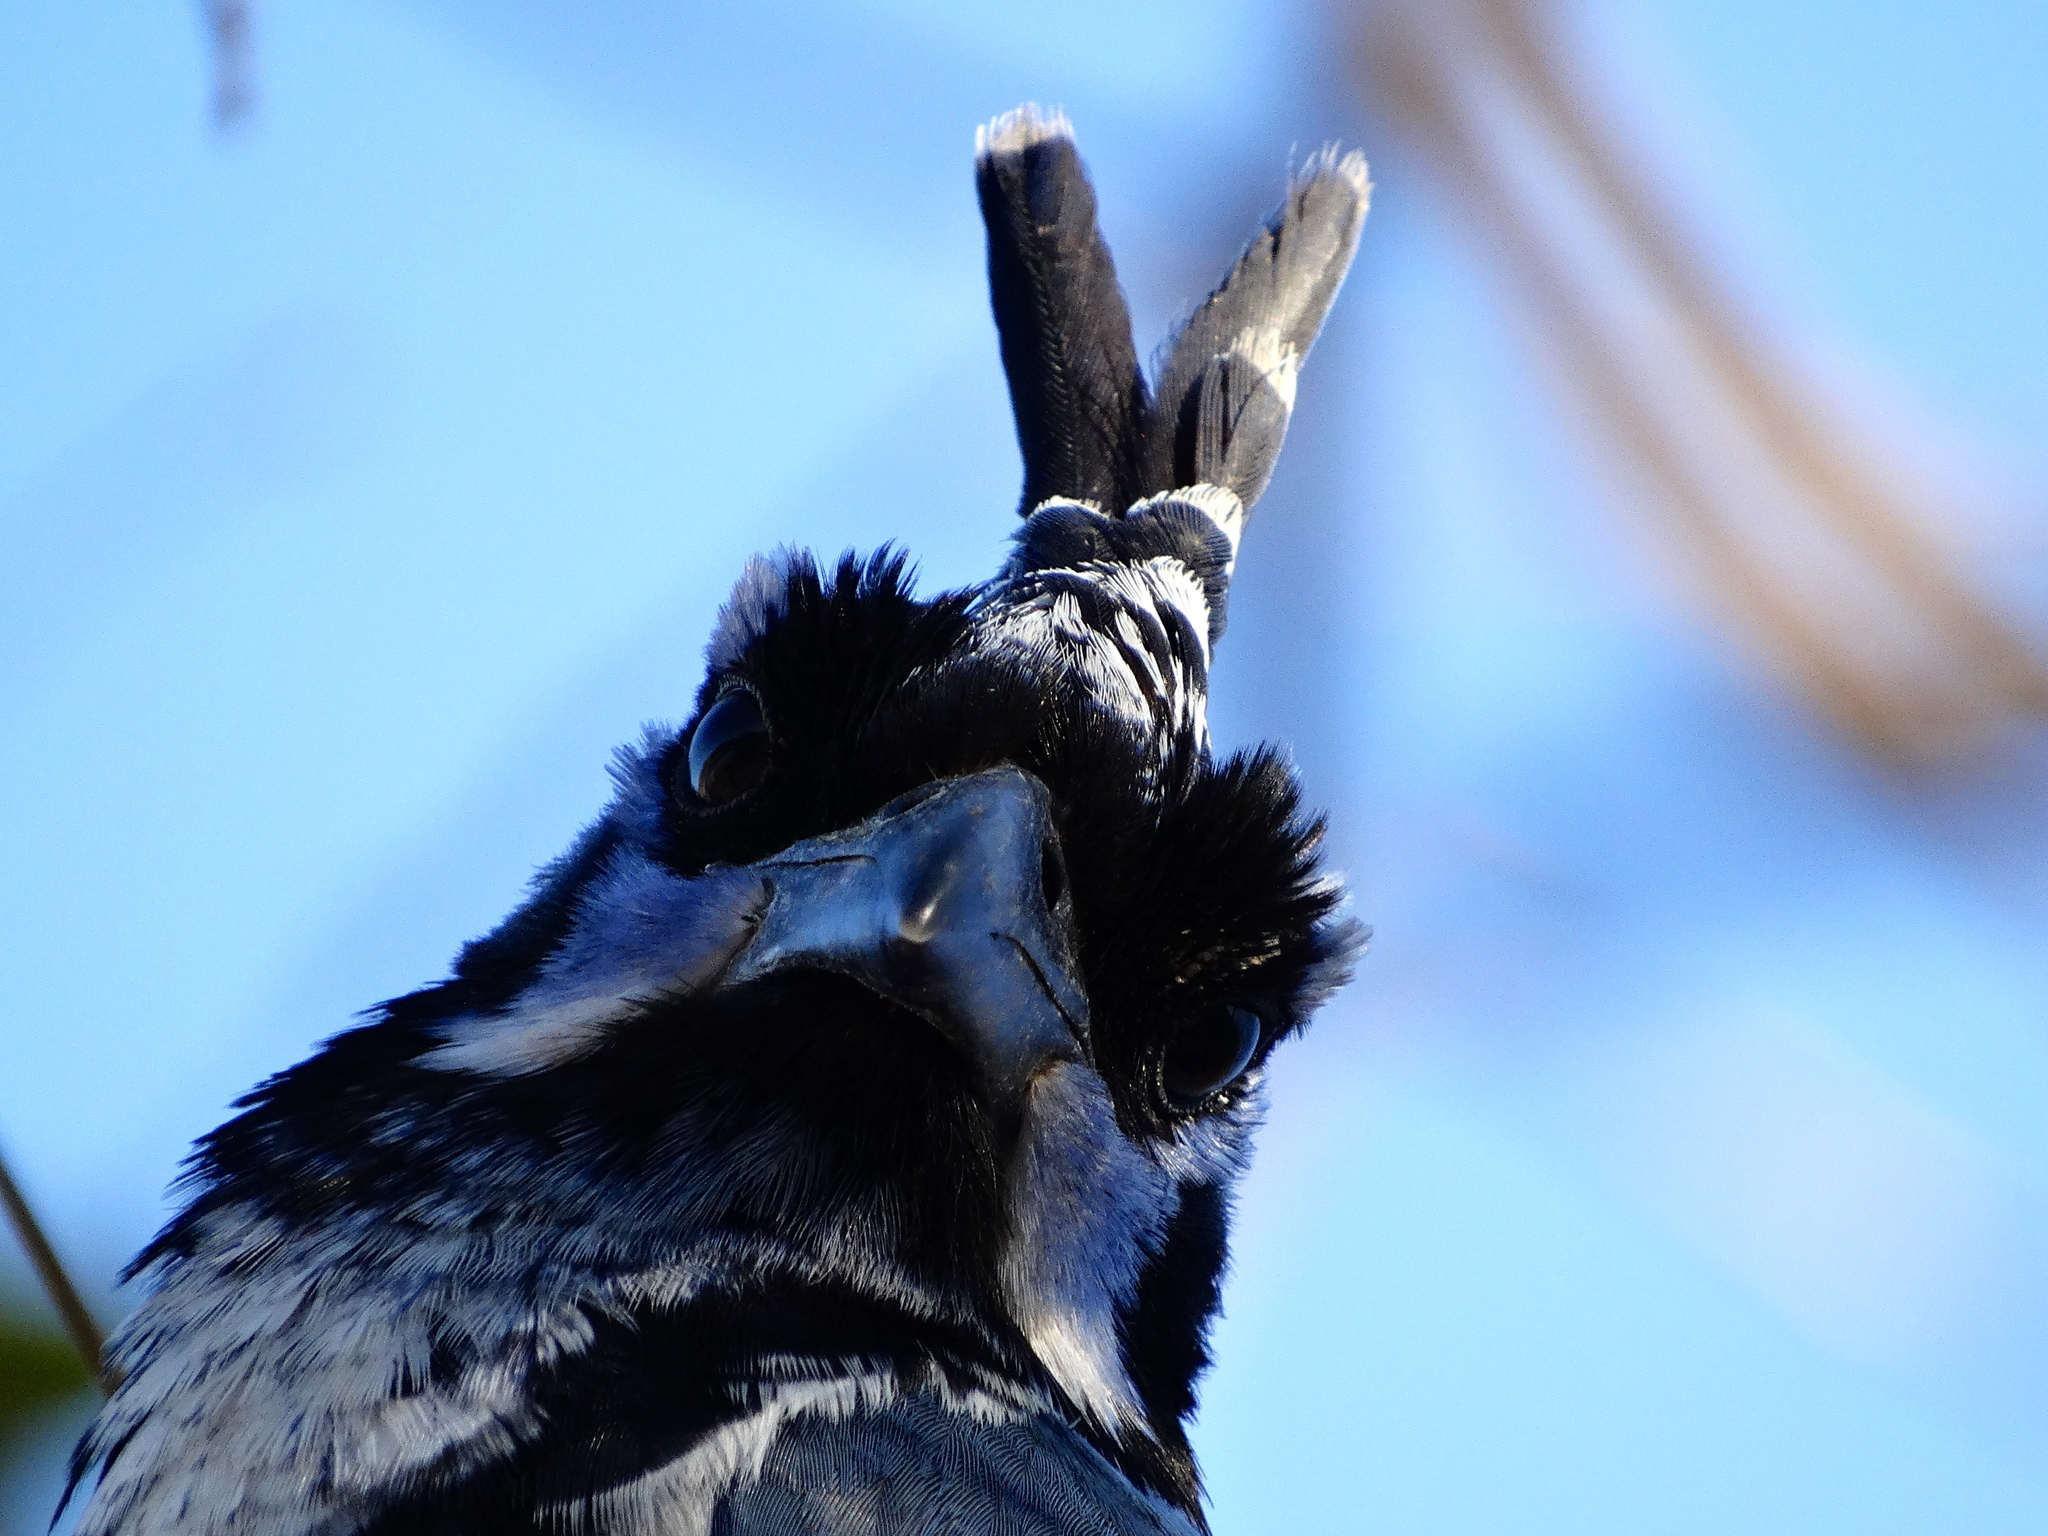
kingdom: Animalia
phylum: Chordata
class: Aves
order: Passeriformes
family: Corvidae
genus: Calocitta
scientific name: Calocitta colliei
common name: Black-throated magpie-jay
